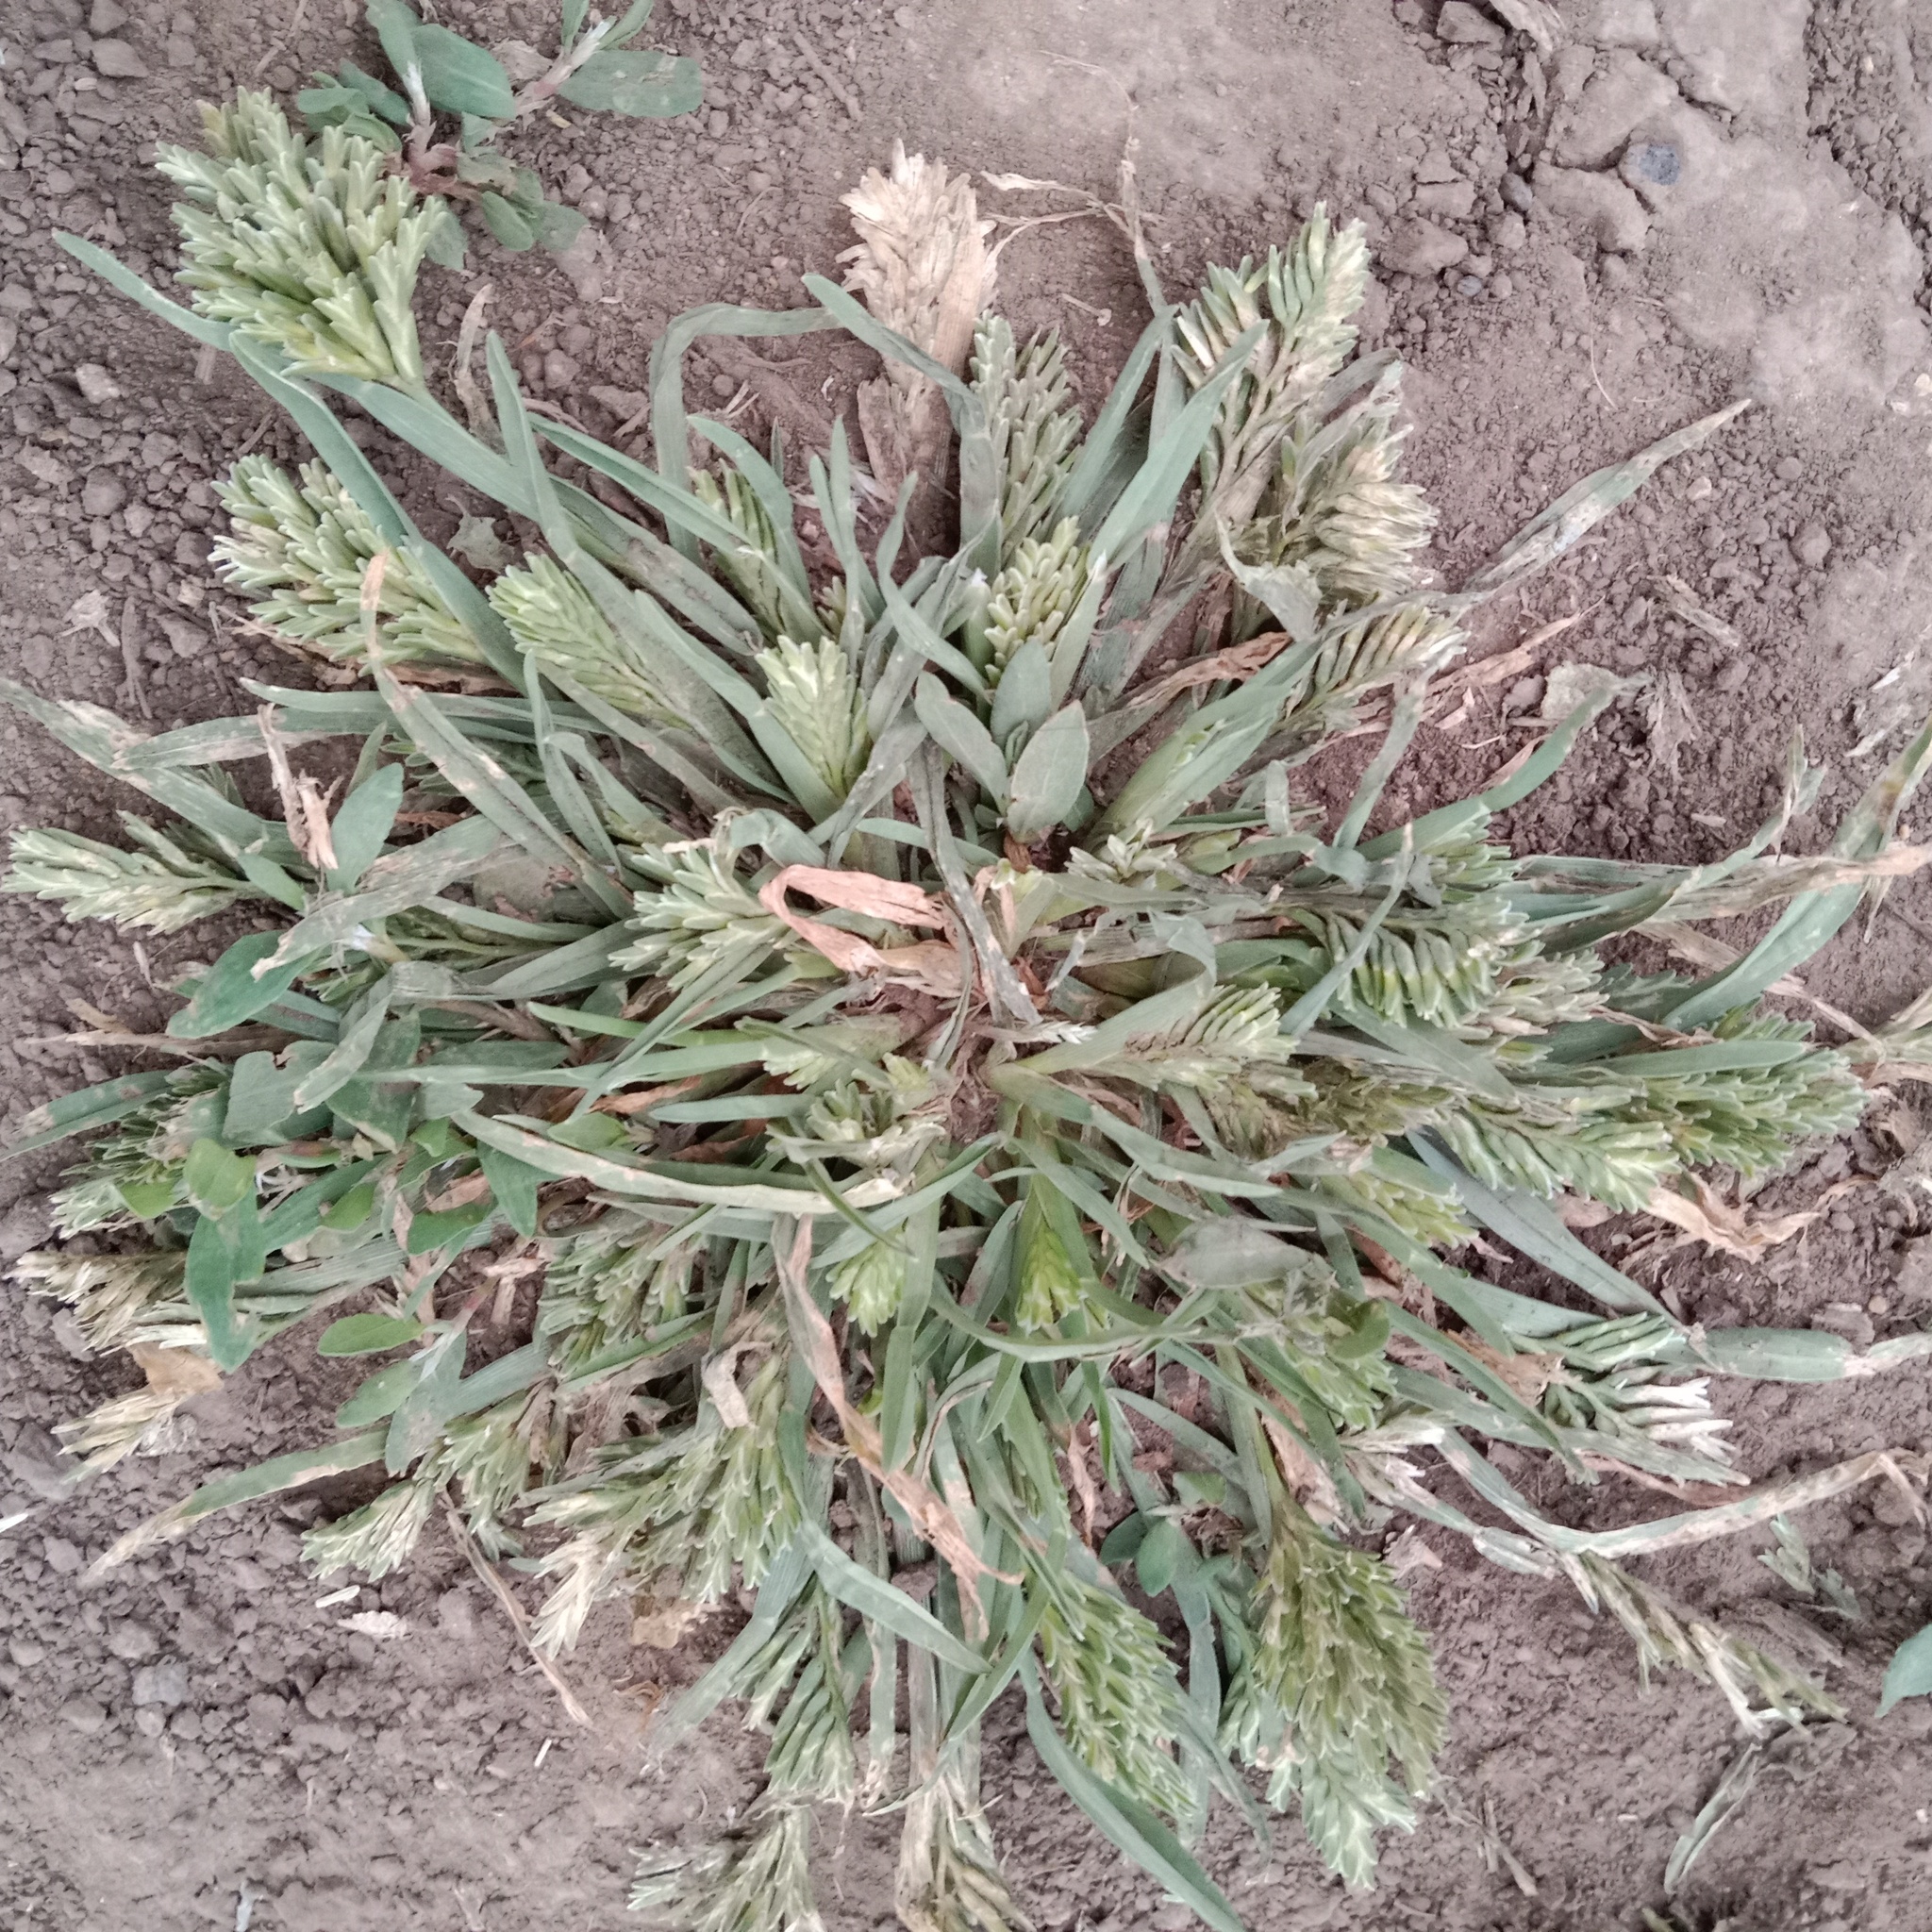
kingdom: Plantae
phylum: Tracheophyta
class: Liliopsida
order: Poales
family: Poaceae
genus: Sclerochloa
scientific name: Sclerochloa dura
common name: Common hardgrass
